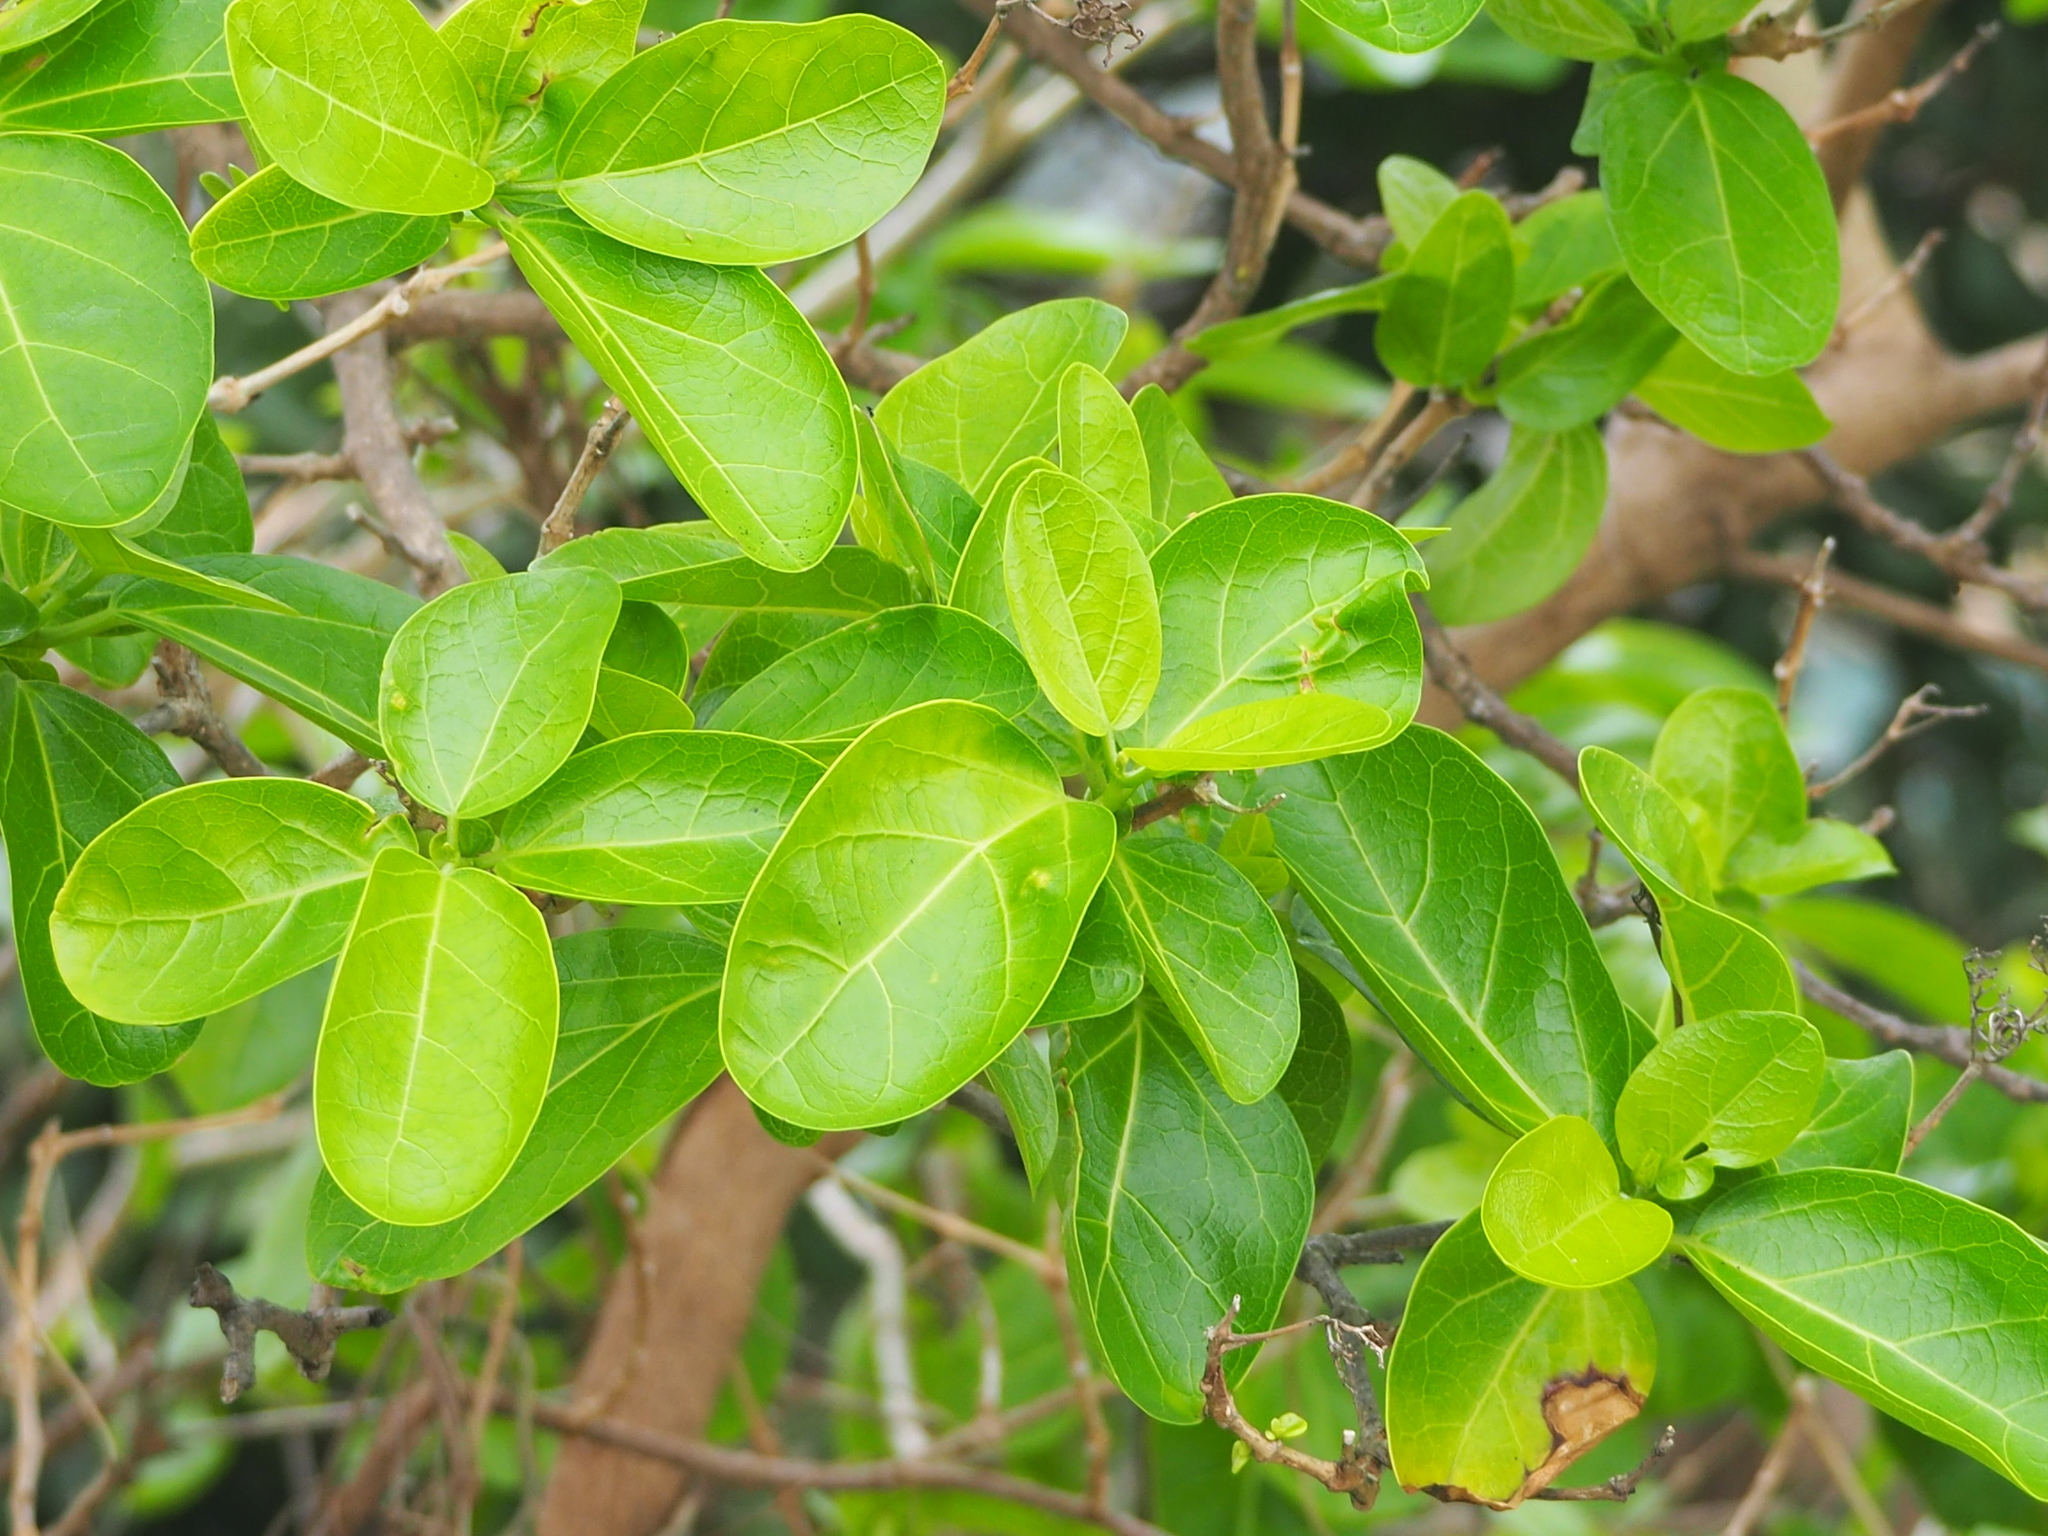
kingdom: Plantae
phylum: Tracheophyta
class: Magnoliopsida
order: Lamiales
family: Lamiaceae
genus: Premna
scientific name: Premna serratifolia
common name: Bastard guelder
